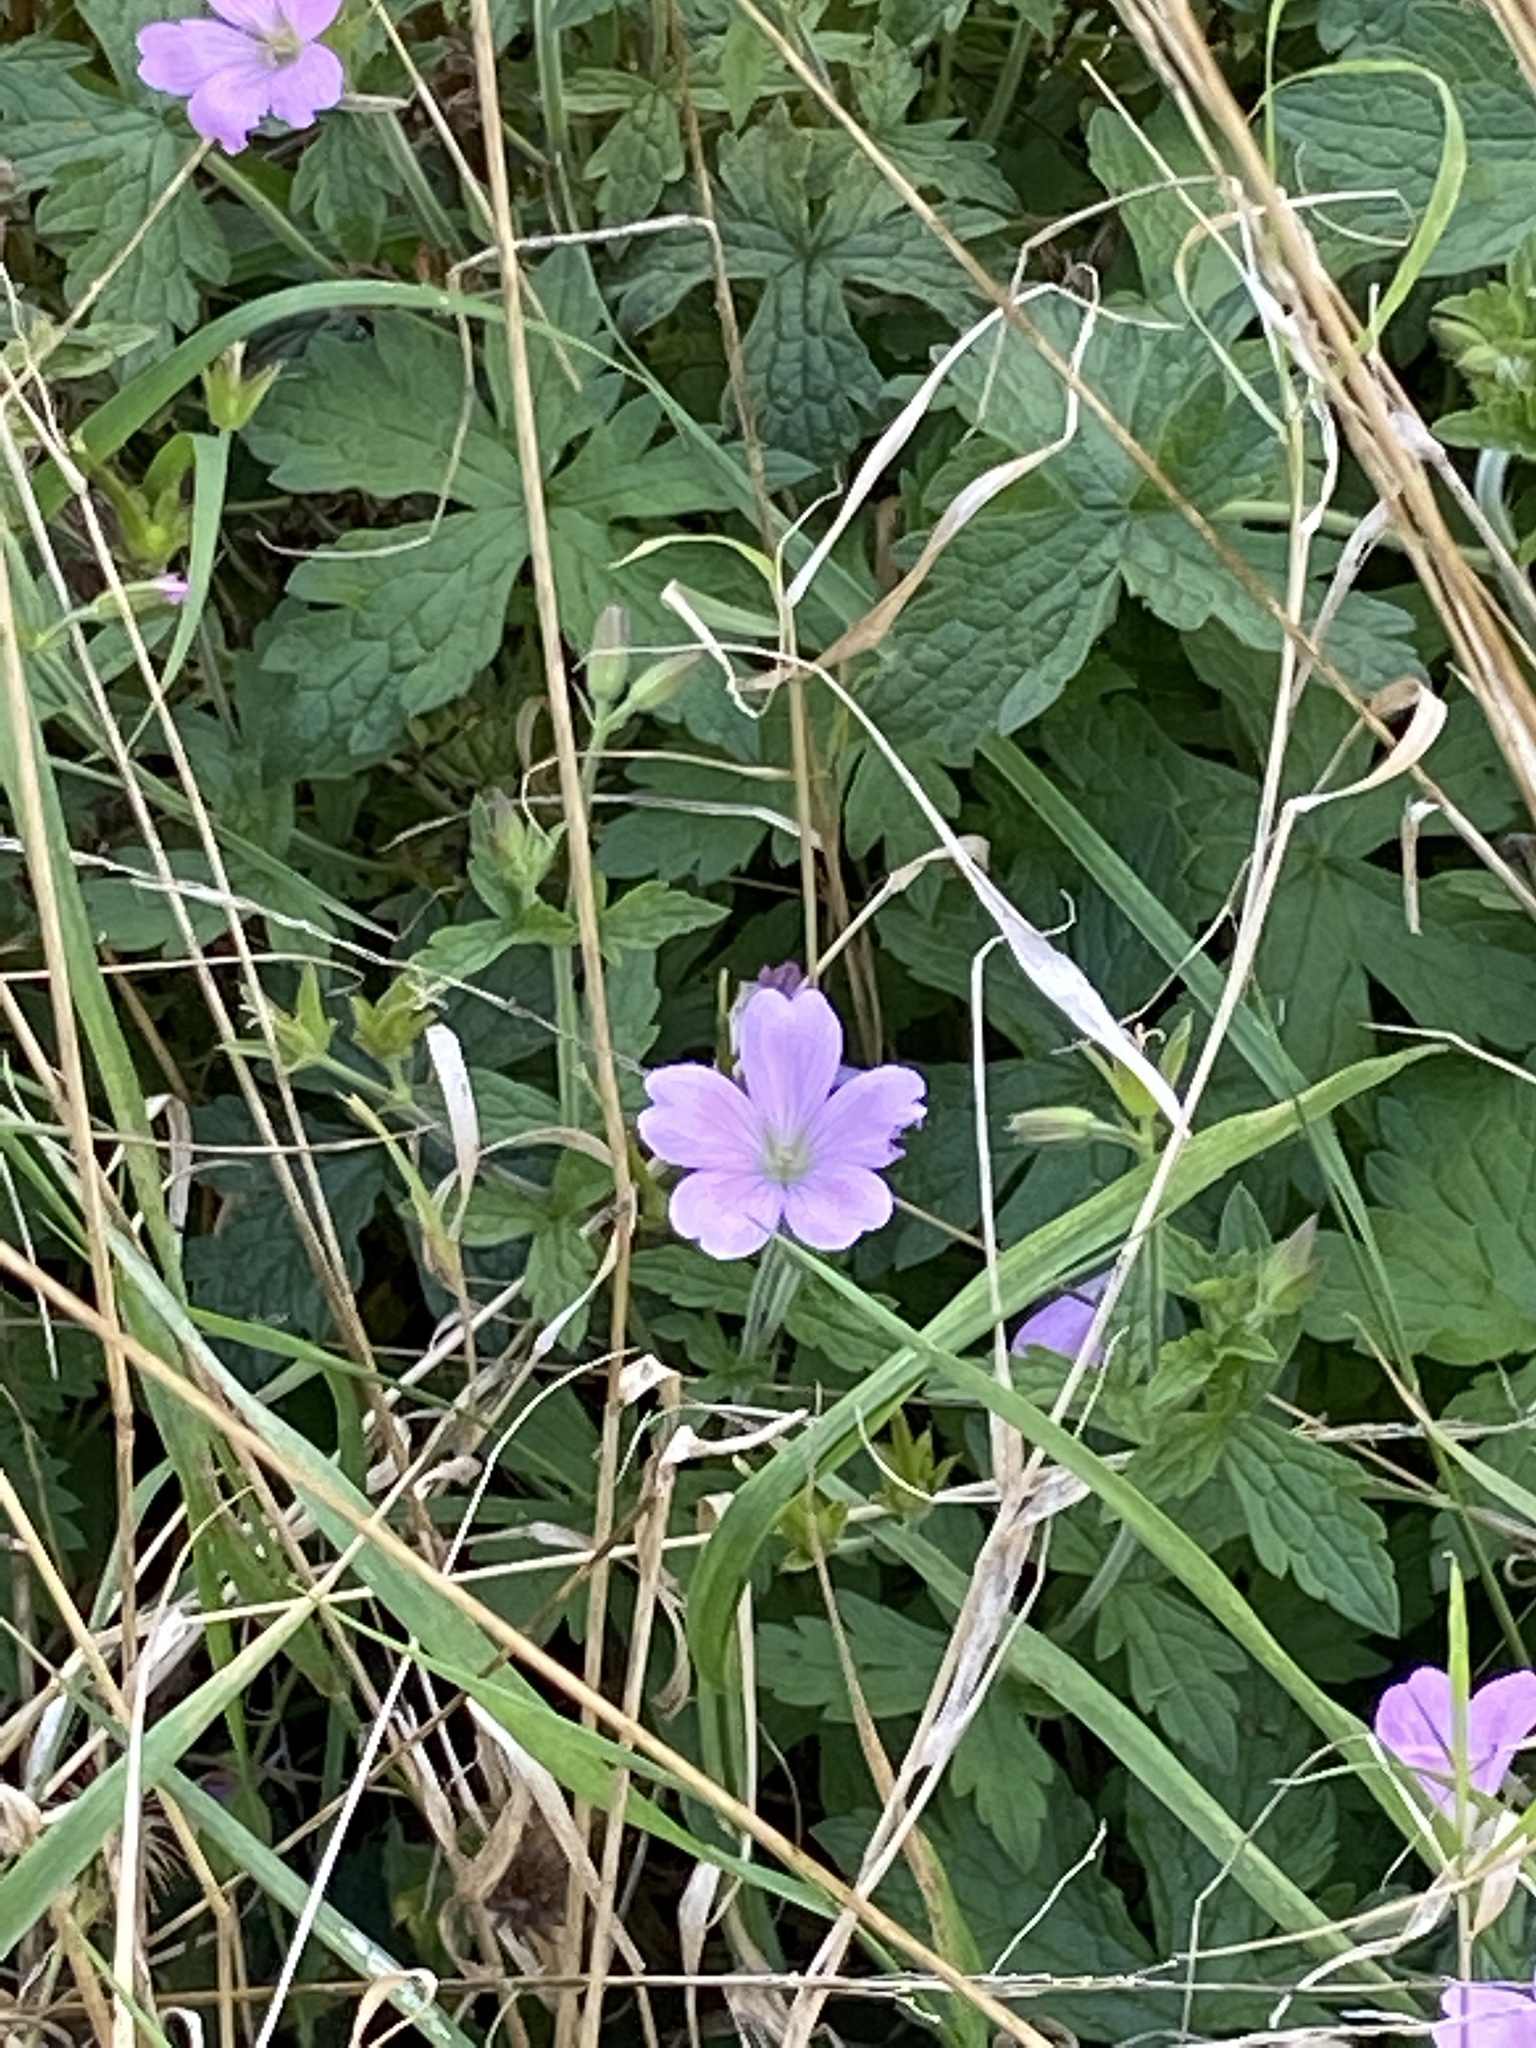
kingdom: Plantae
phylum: Tracheophyta
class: Magnoliopsida
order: Geraniales
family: Geraniaceae
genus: Geranium
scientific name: Geranium oxonianum
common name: Druce's crane's-bill
